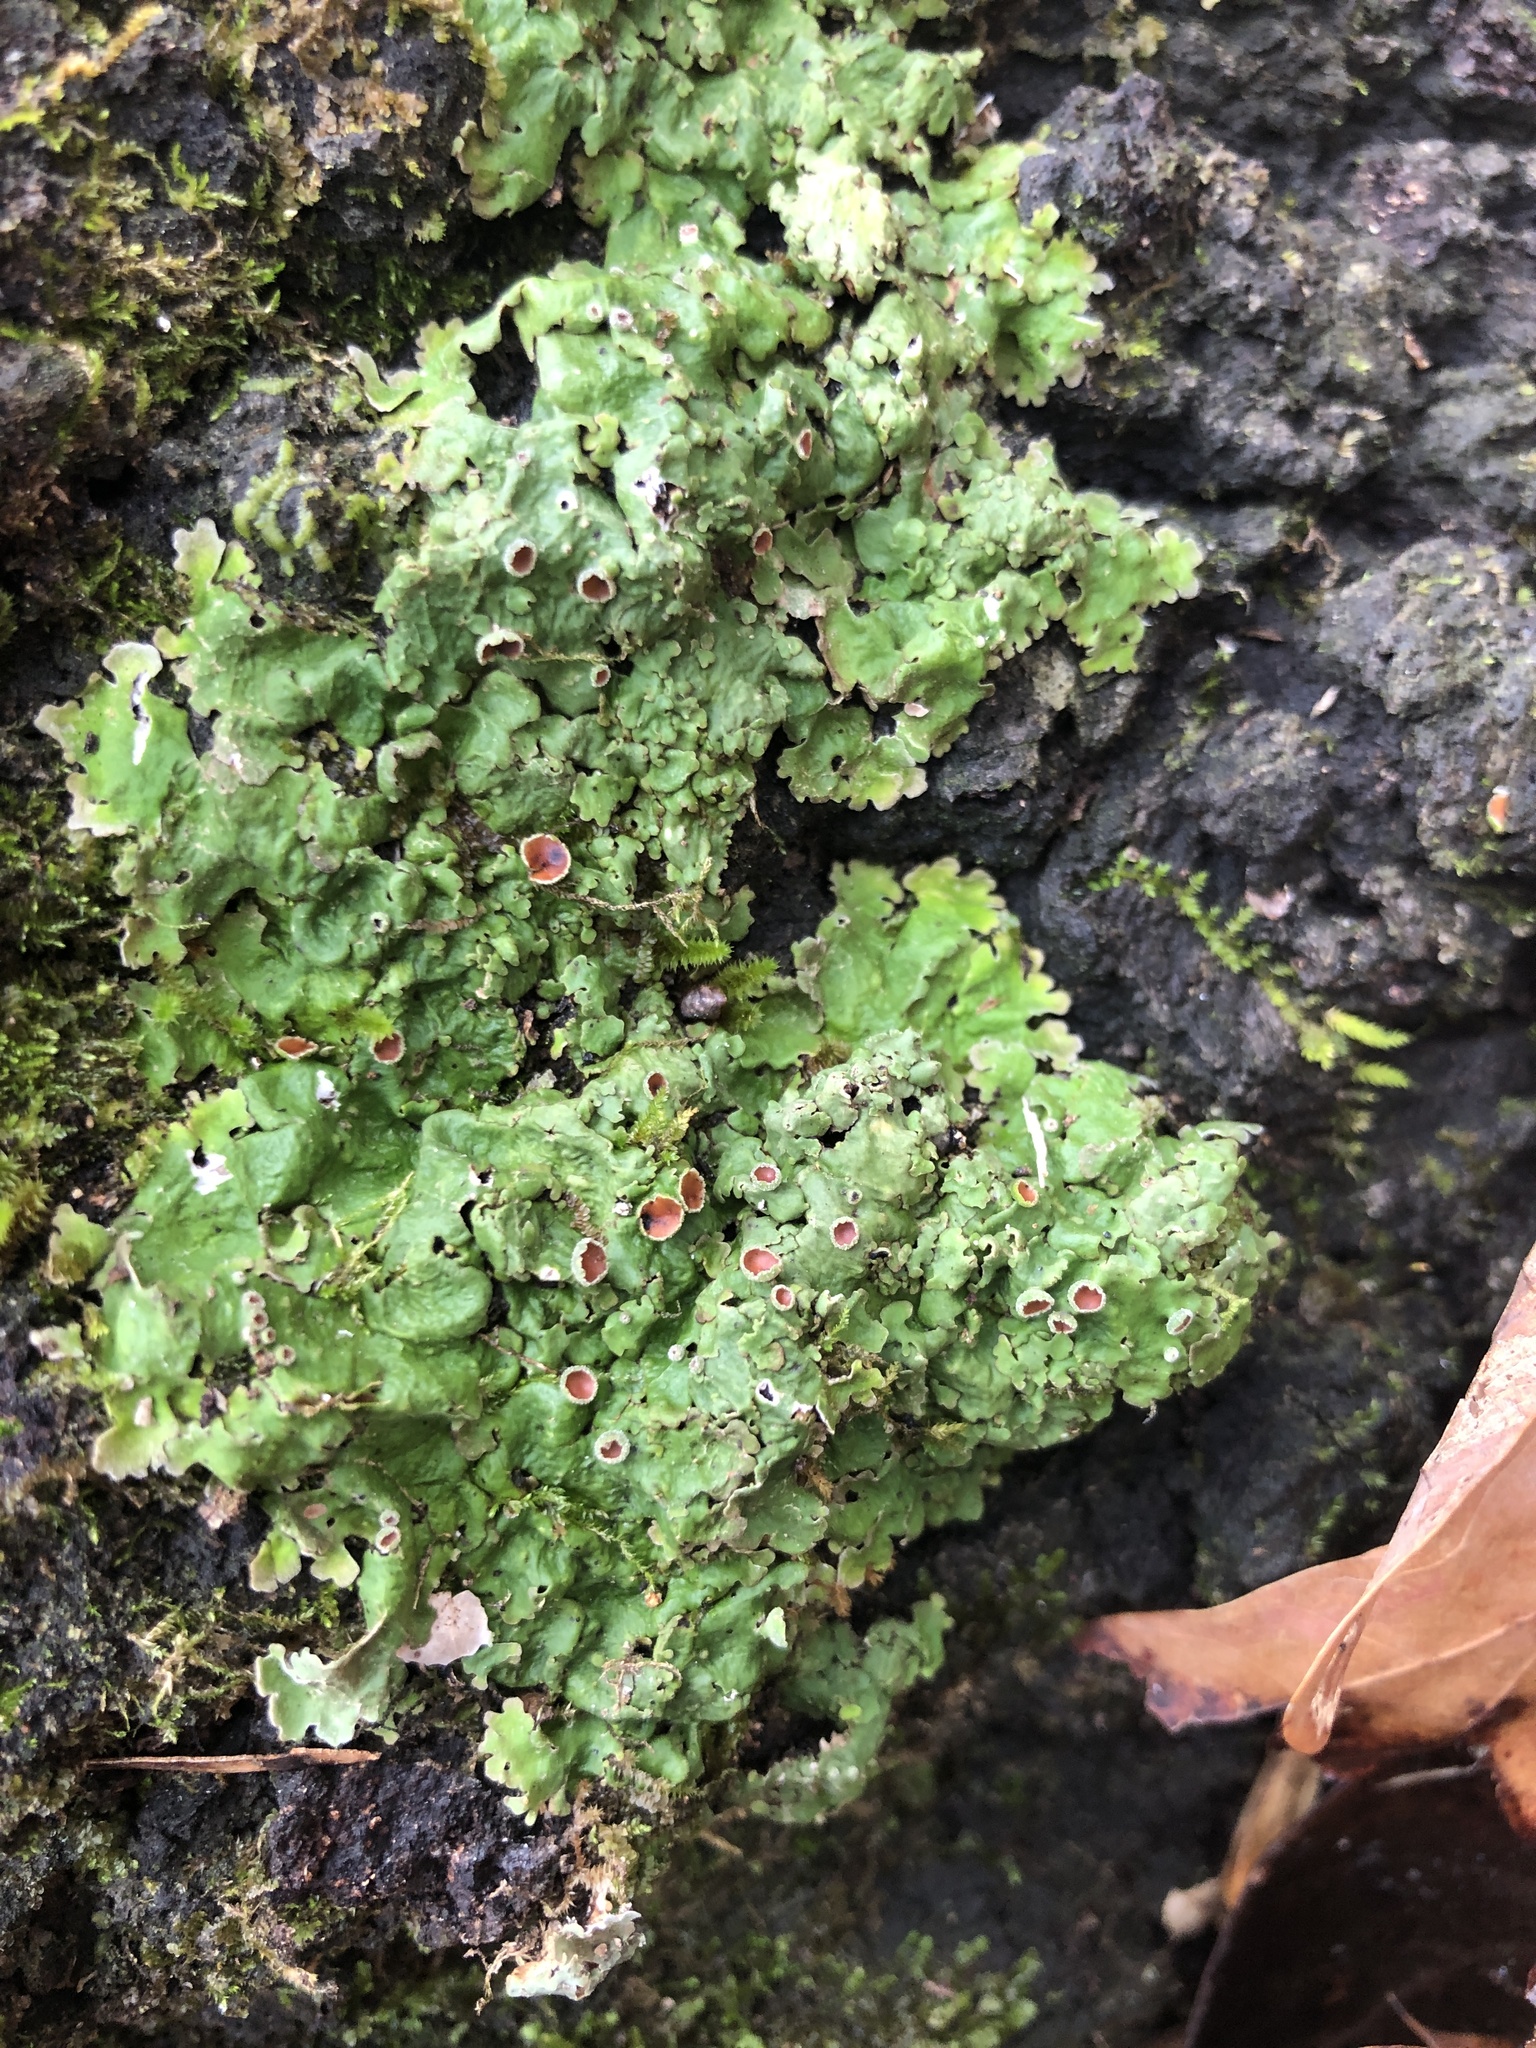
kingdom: Fungi
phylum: Ascomycota
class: Lecanoromycetes
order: Peltigerales
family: Peltigeraceae
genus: Emmanuelia
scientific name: Emmanuelia ravenelii
